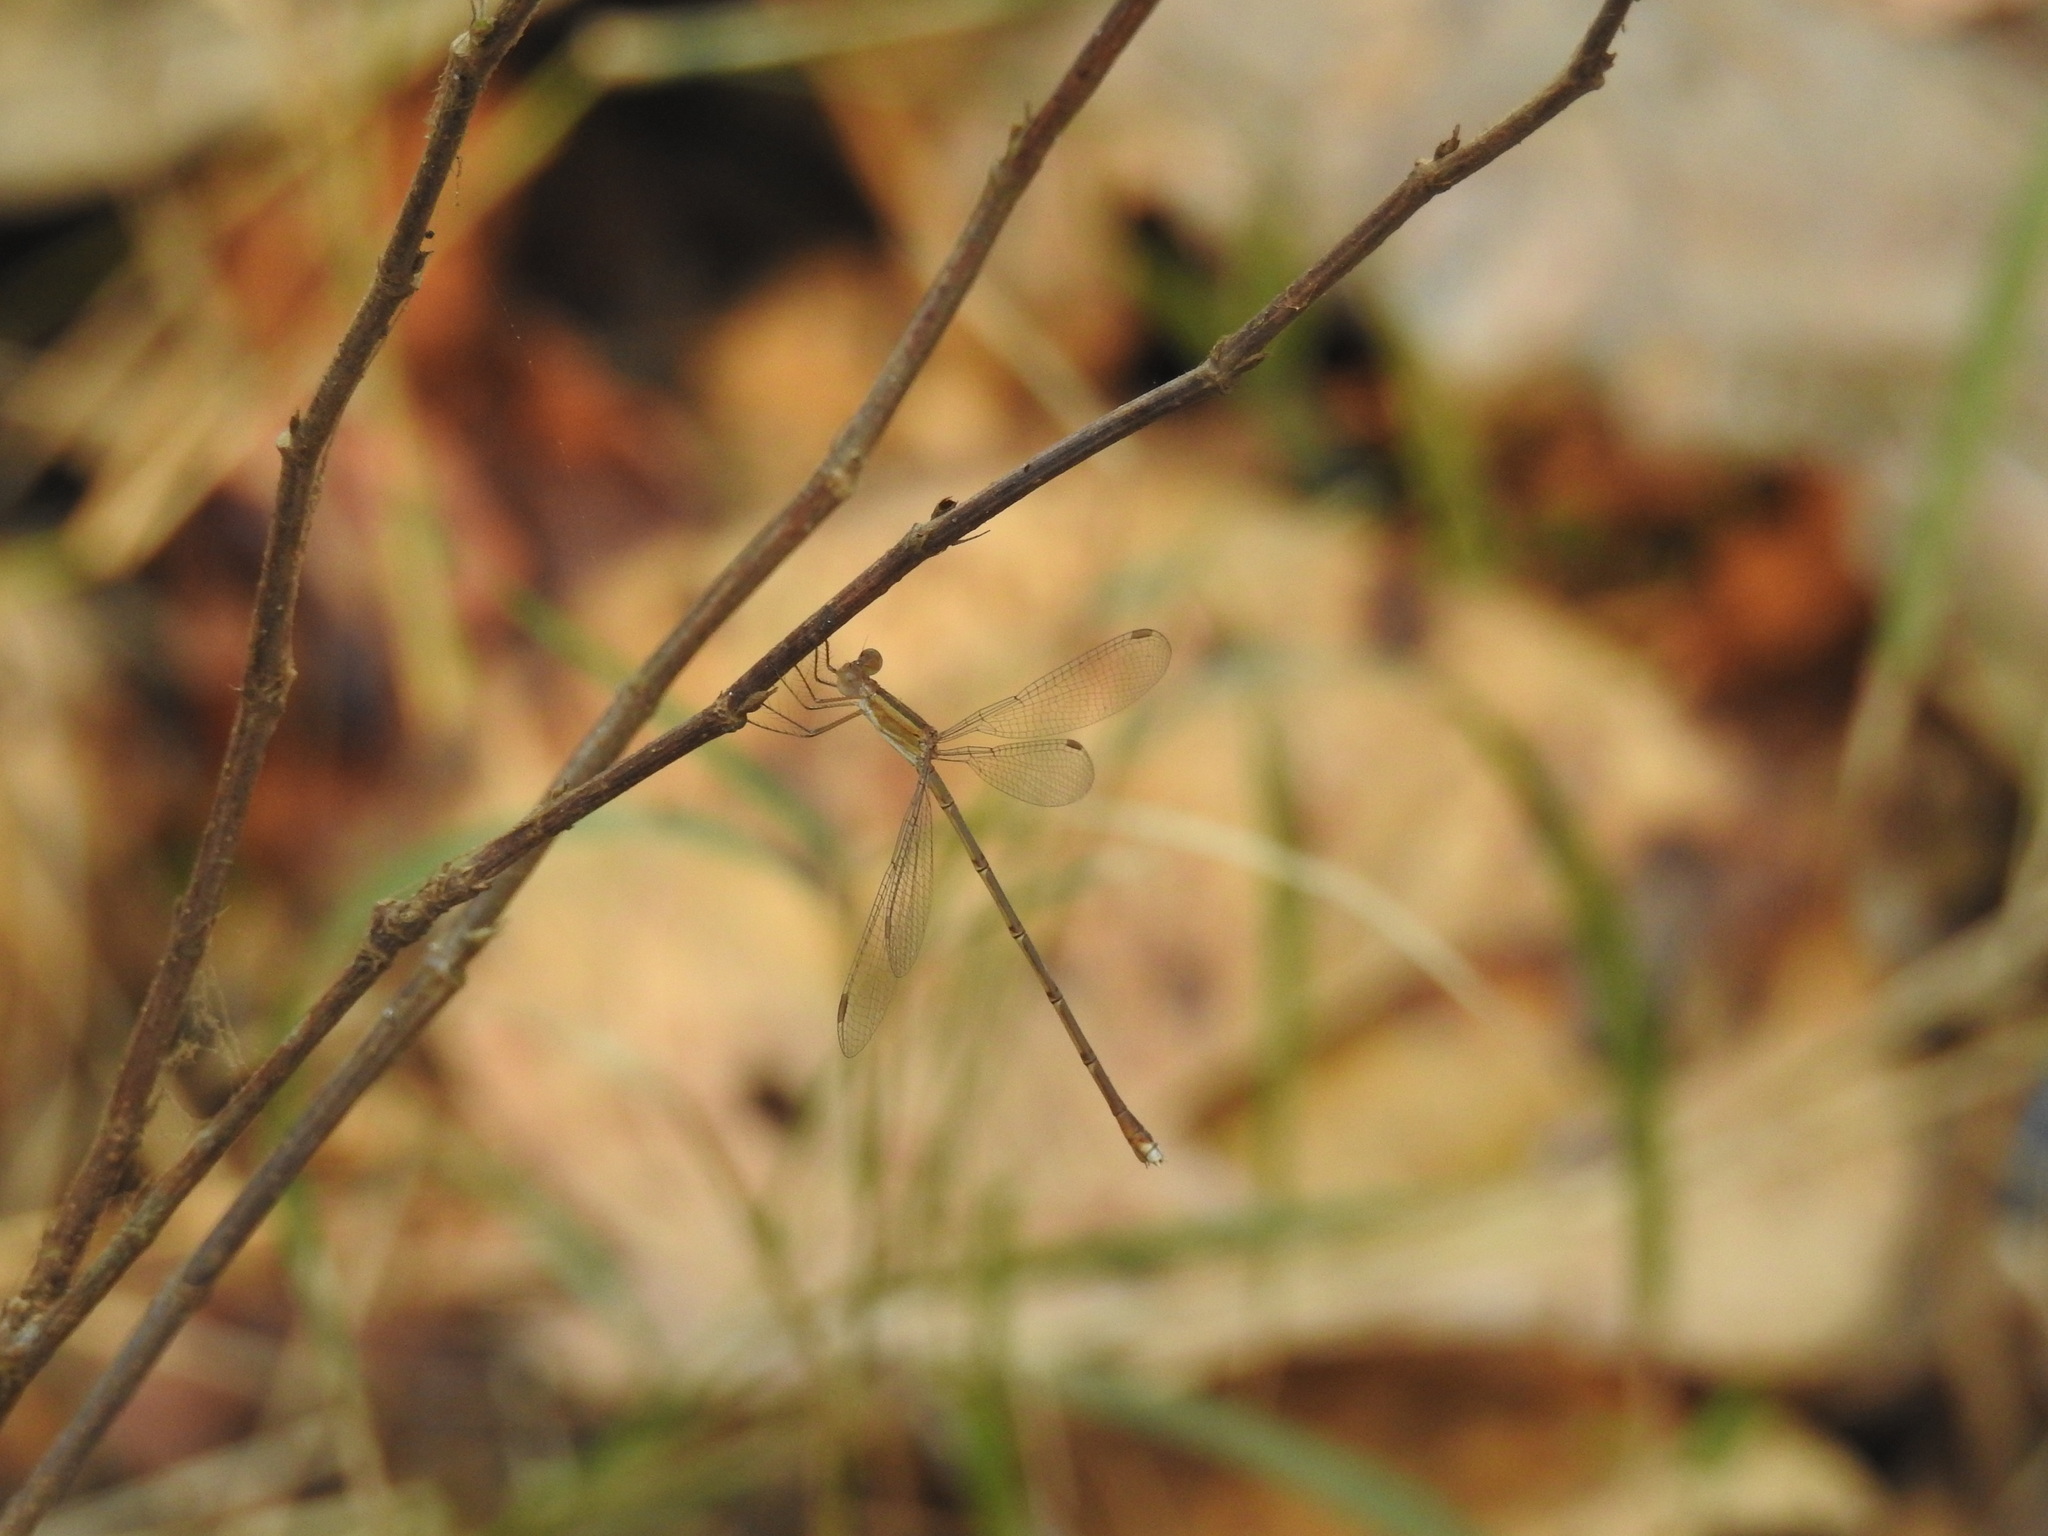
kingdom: Animalia
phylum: Arthropoda
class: Insecta
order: Odonata
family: Lestidae
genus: Lestes
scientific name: Lestes viridulus
